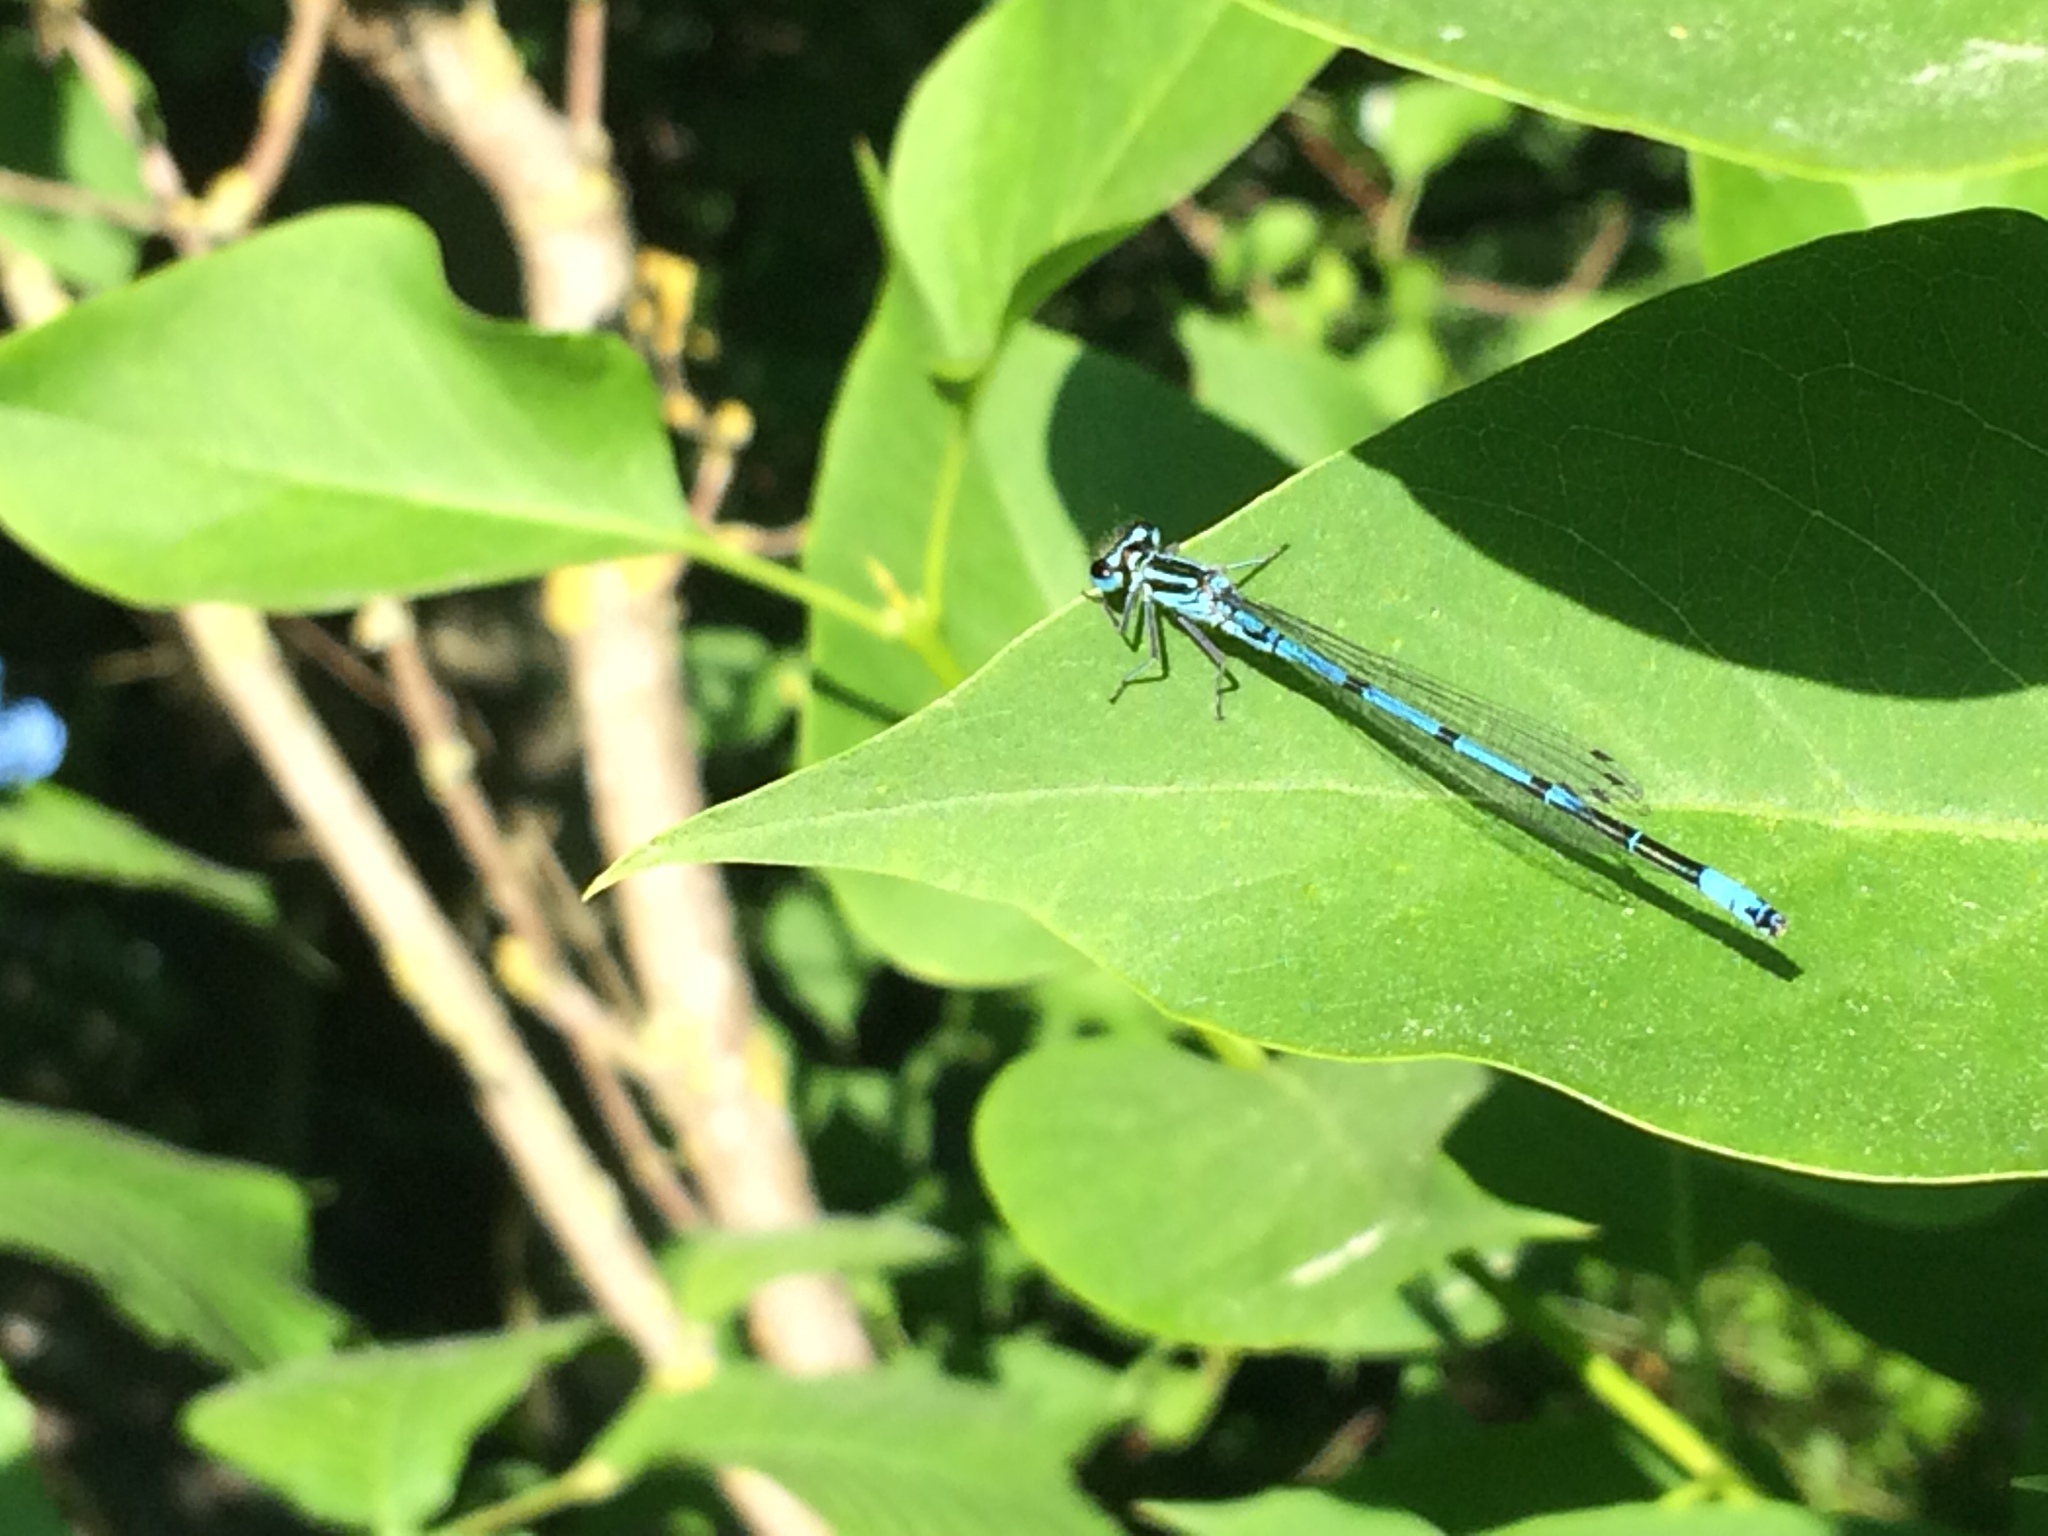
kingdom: Animalia
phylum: Arthropoda
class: Insecta
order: Odonata
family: Coenagrionidae
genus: Coenagrion
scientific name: Coenagrion puella
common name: Azure damselfly
